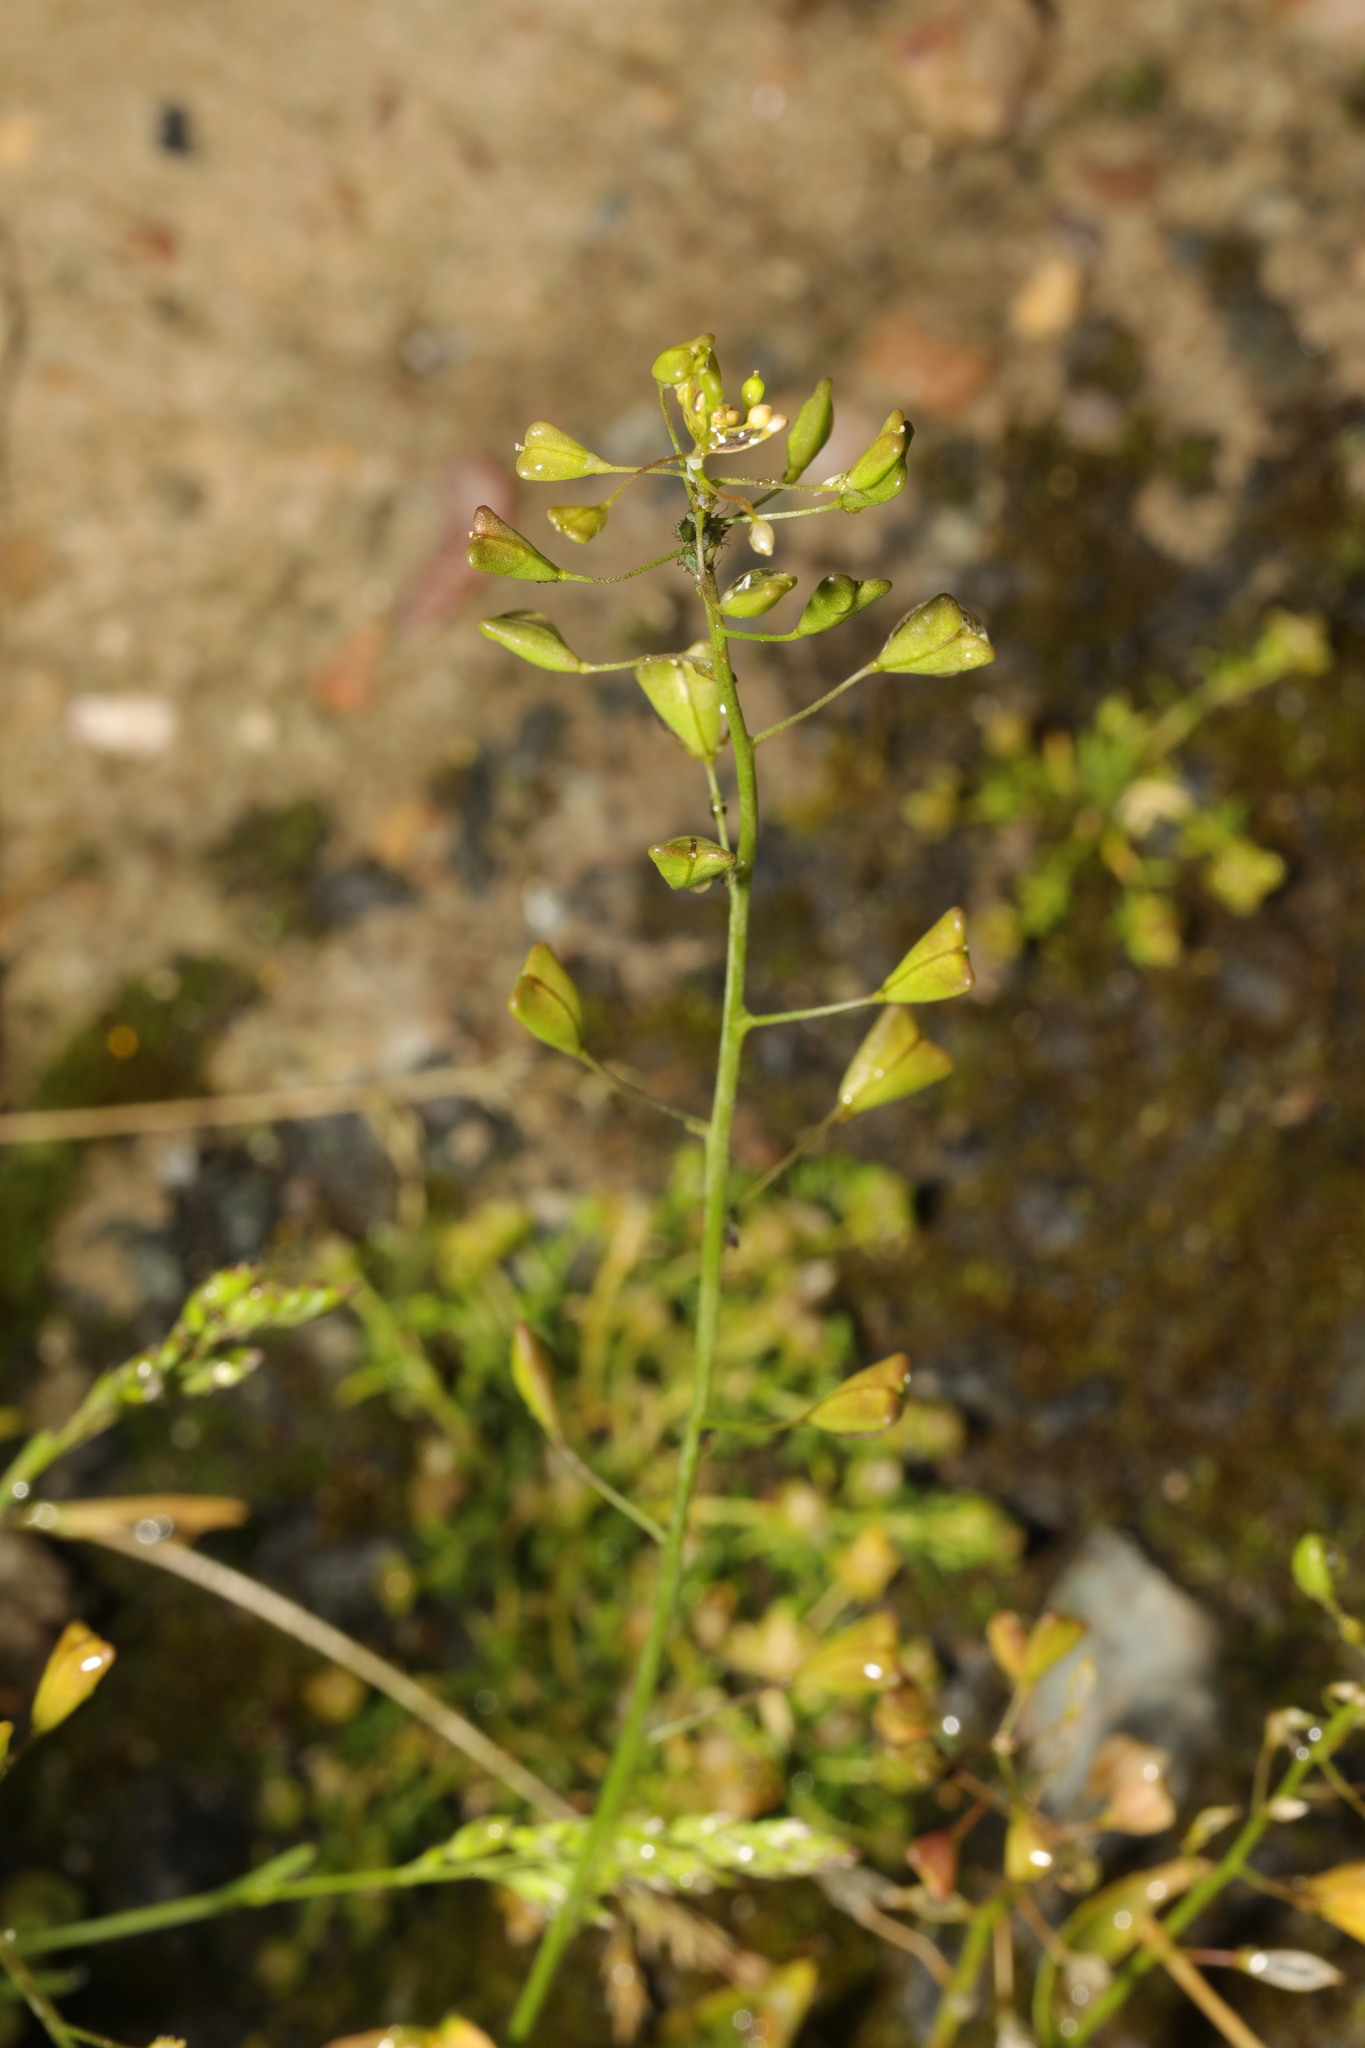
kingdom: Plantae
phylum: Tracheophyta
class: Magnoliopsida
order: Brassicales
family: Brassicaceae
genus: Capsella
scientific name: Capsella bursa-pastoris
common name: Shepherd's purse
